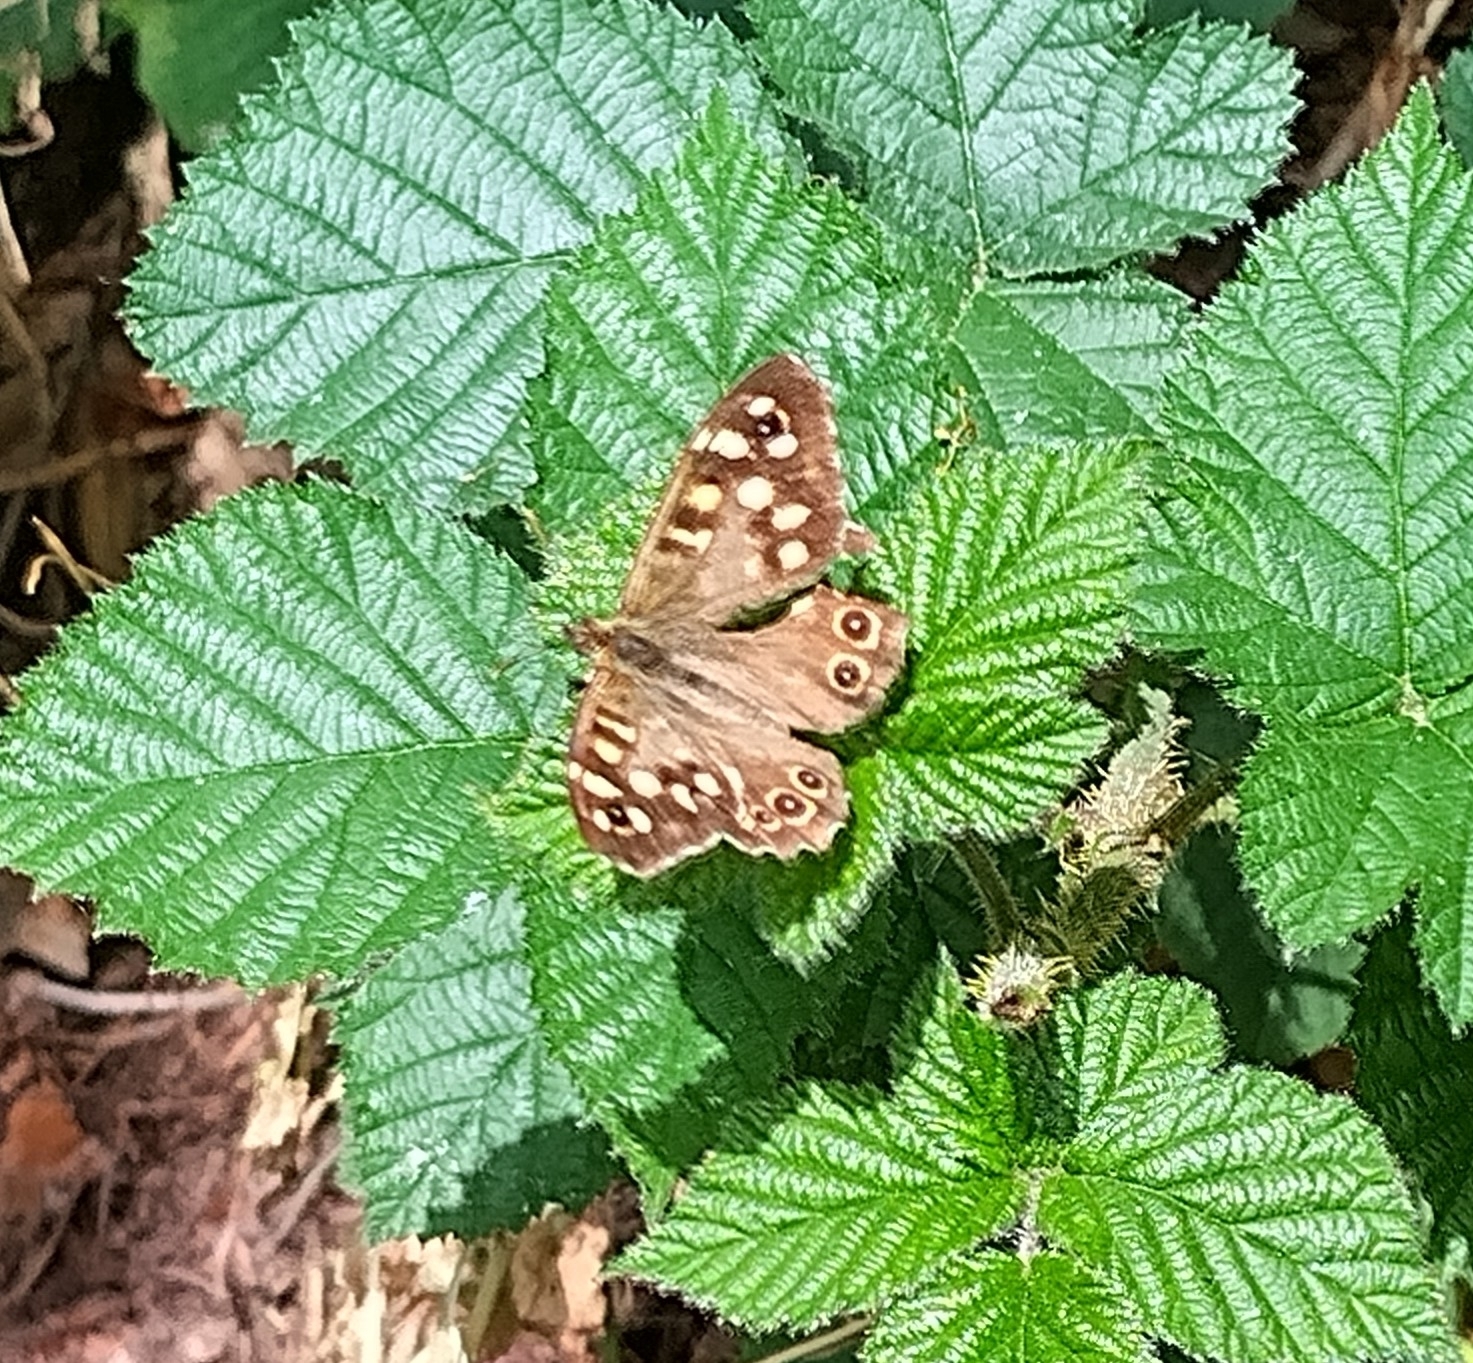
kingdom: Animalia
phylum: Arthropoda
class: Insecta
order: Lepidoptera
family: Nymphalidae
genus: Pararge
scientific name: Pararge aegeria
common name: Speckled wood
